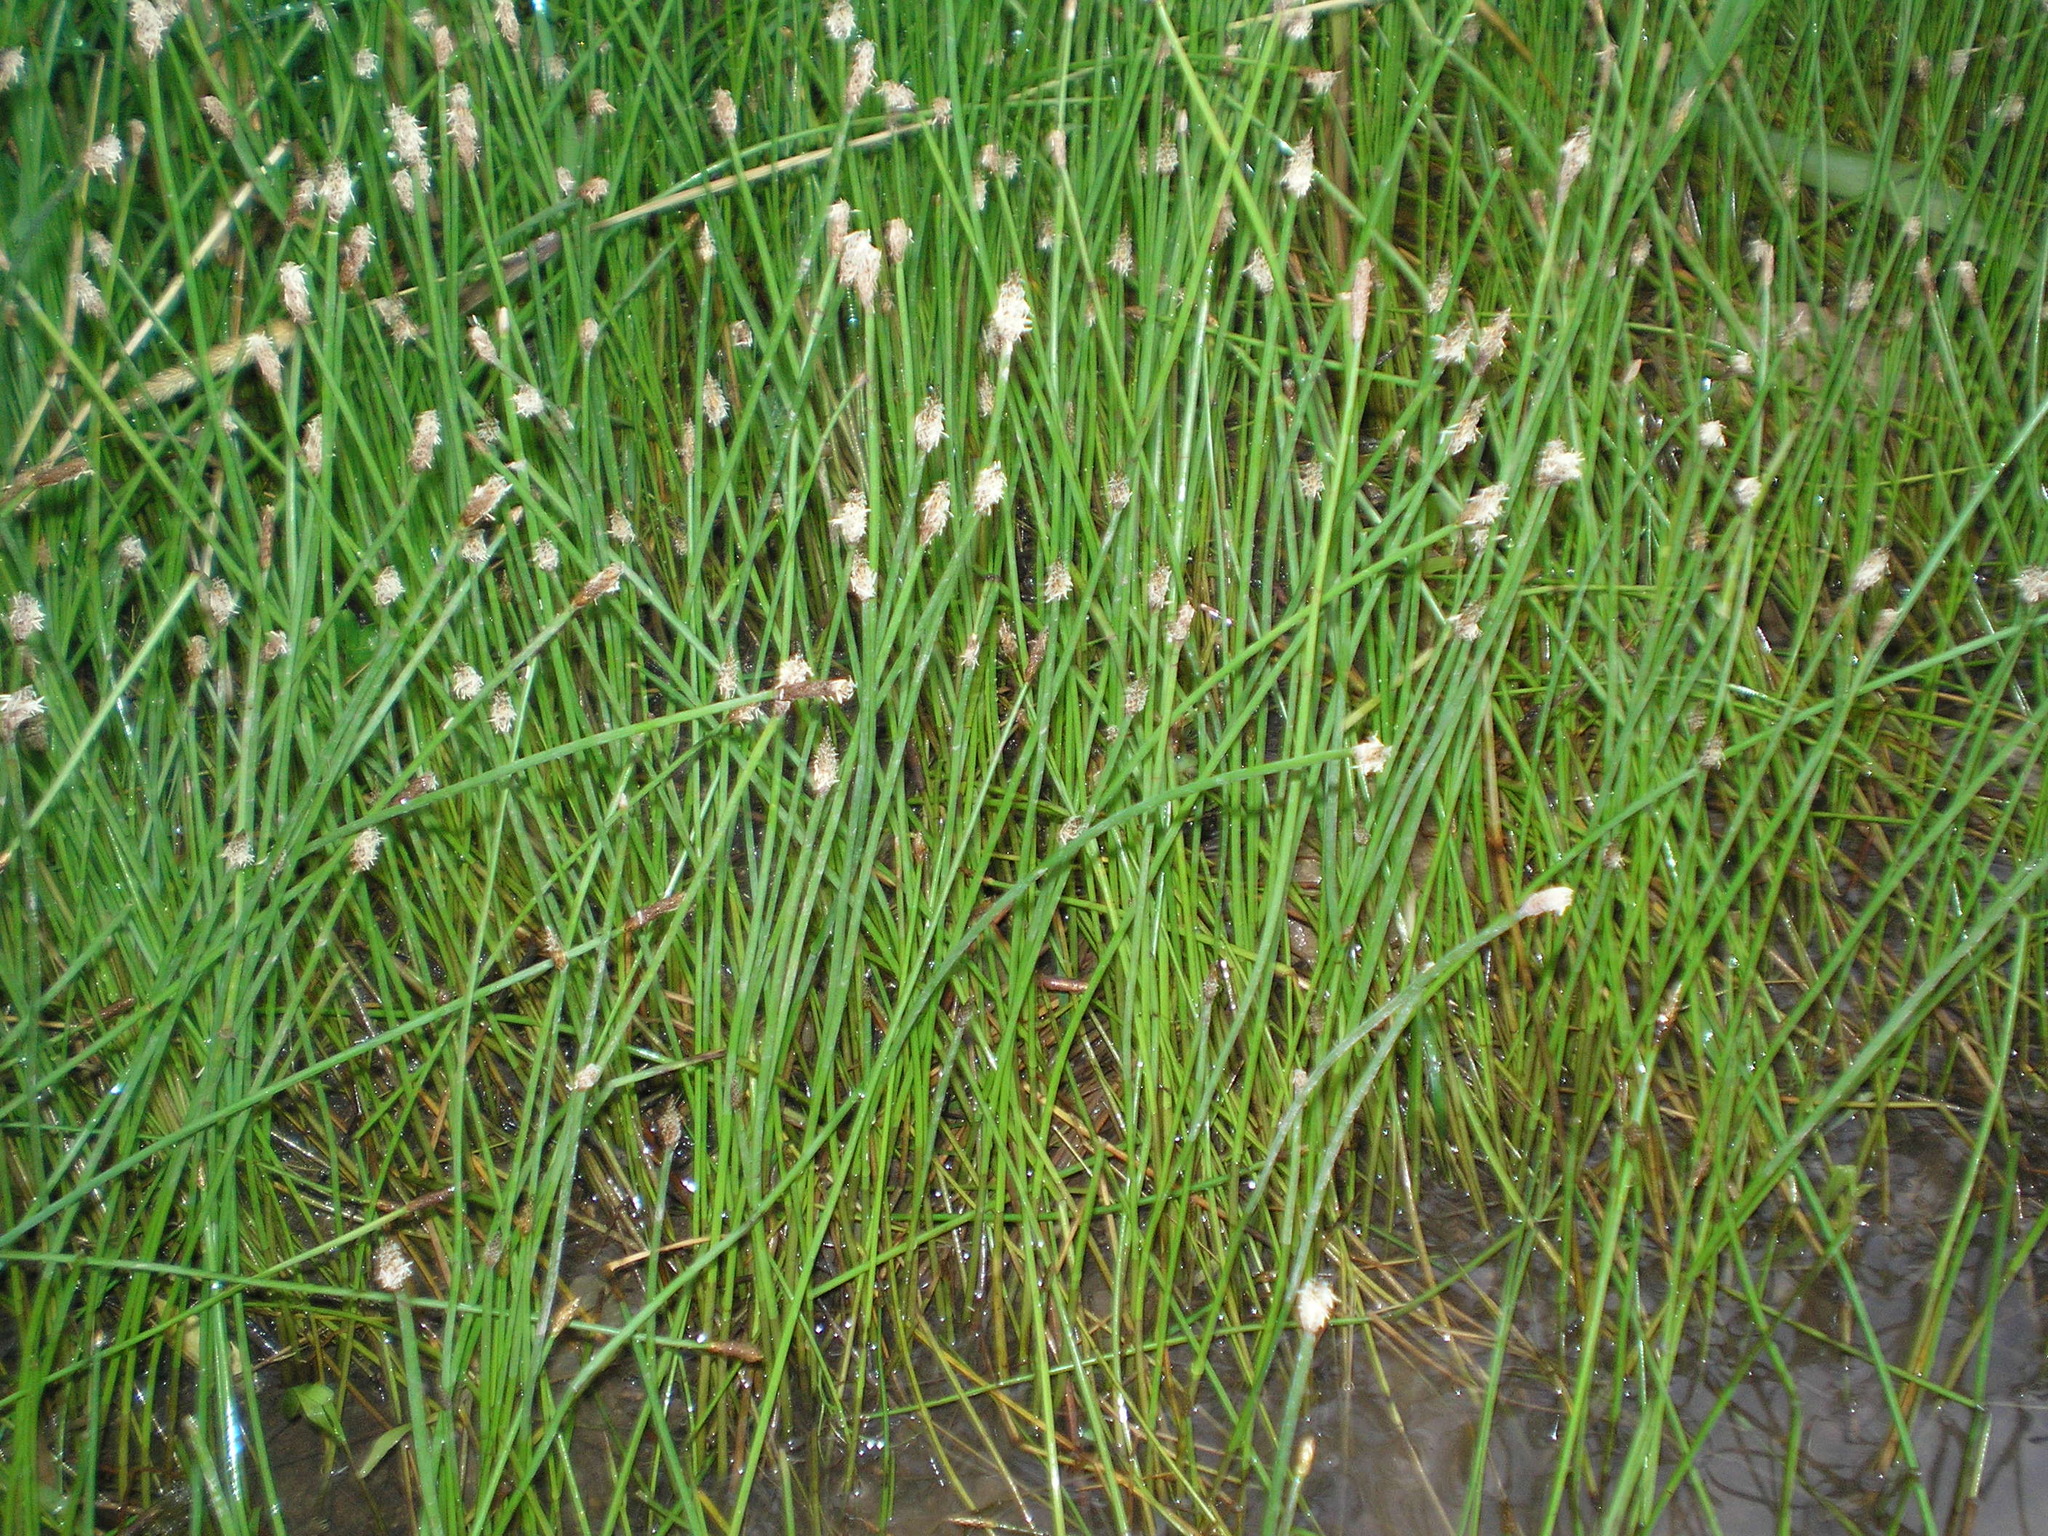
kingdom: Plantae
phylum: Tracheophyta
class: Liliopsida
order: Poales
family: Cyperaceae
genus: Eleocharis
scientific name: Eleocharis palustris
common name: Common spike-rush
